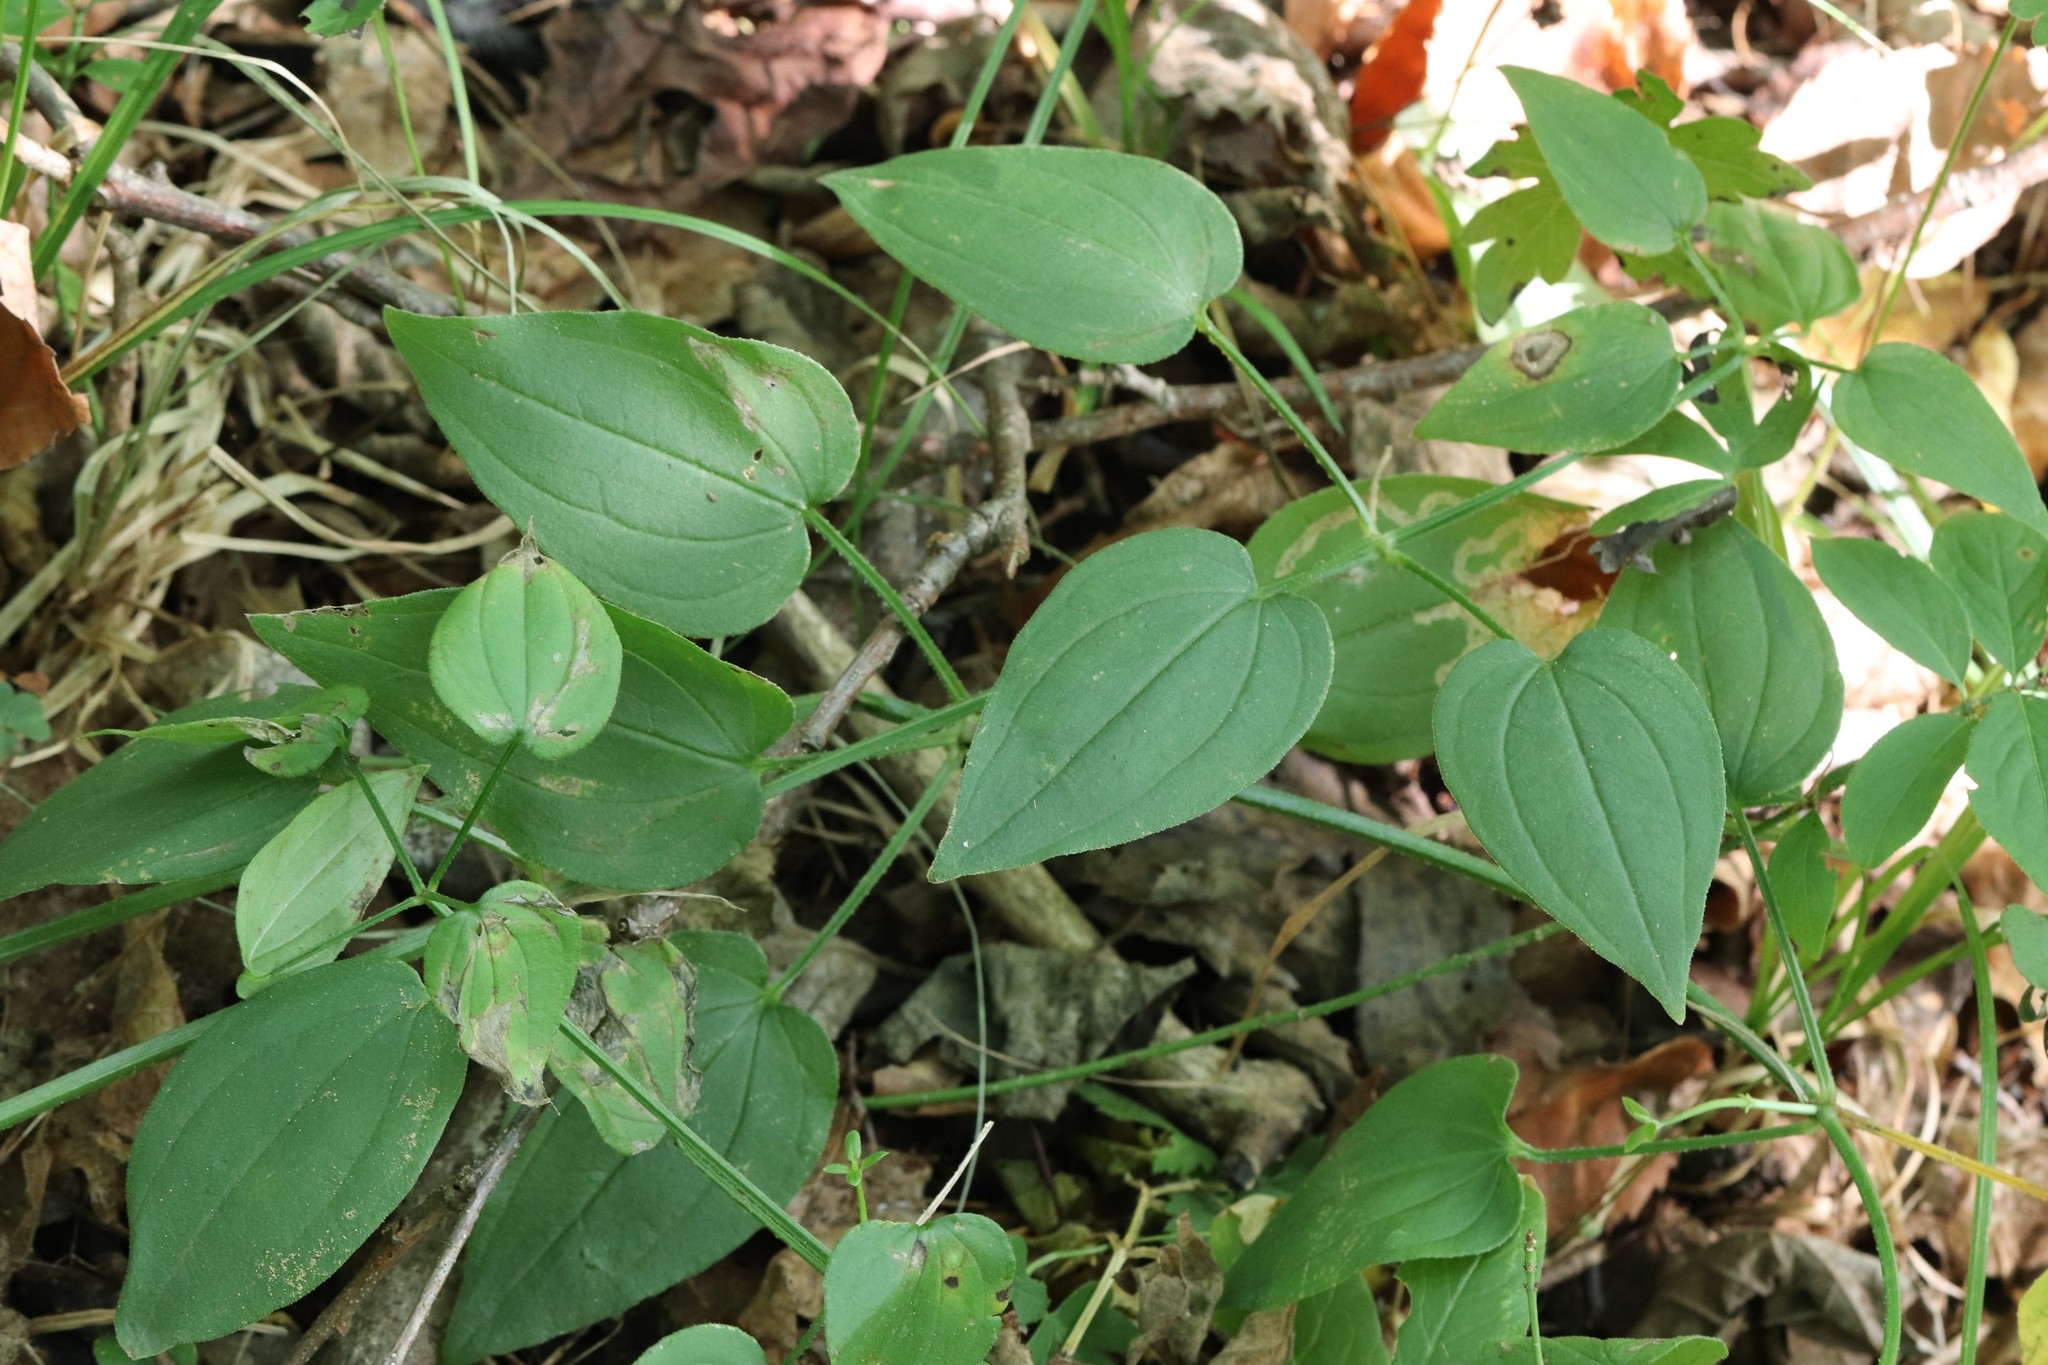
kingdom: Plantae
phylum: Tracheophyta
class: Magnoliopsida
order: Gentianales
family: Rubiaceae
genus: Rubia
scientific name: Rubia cordifolia
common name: Indian madder
